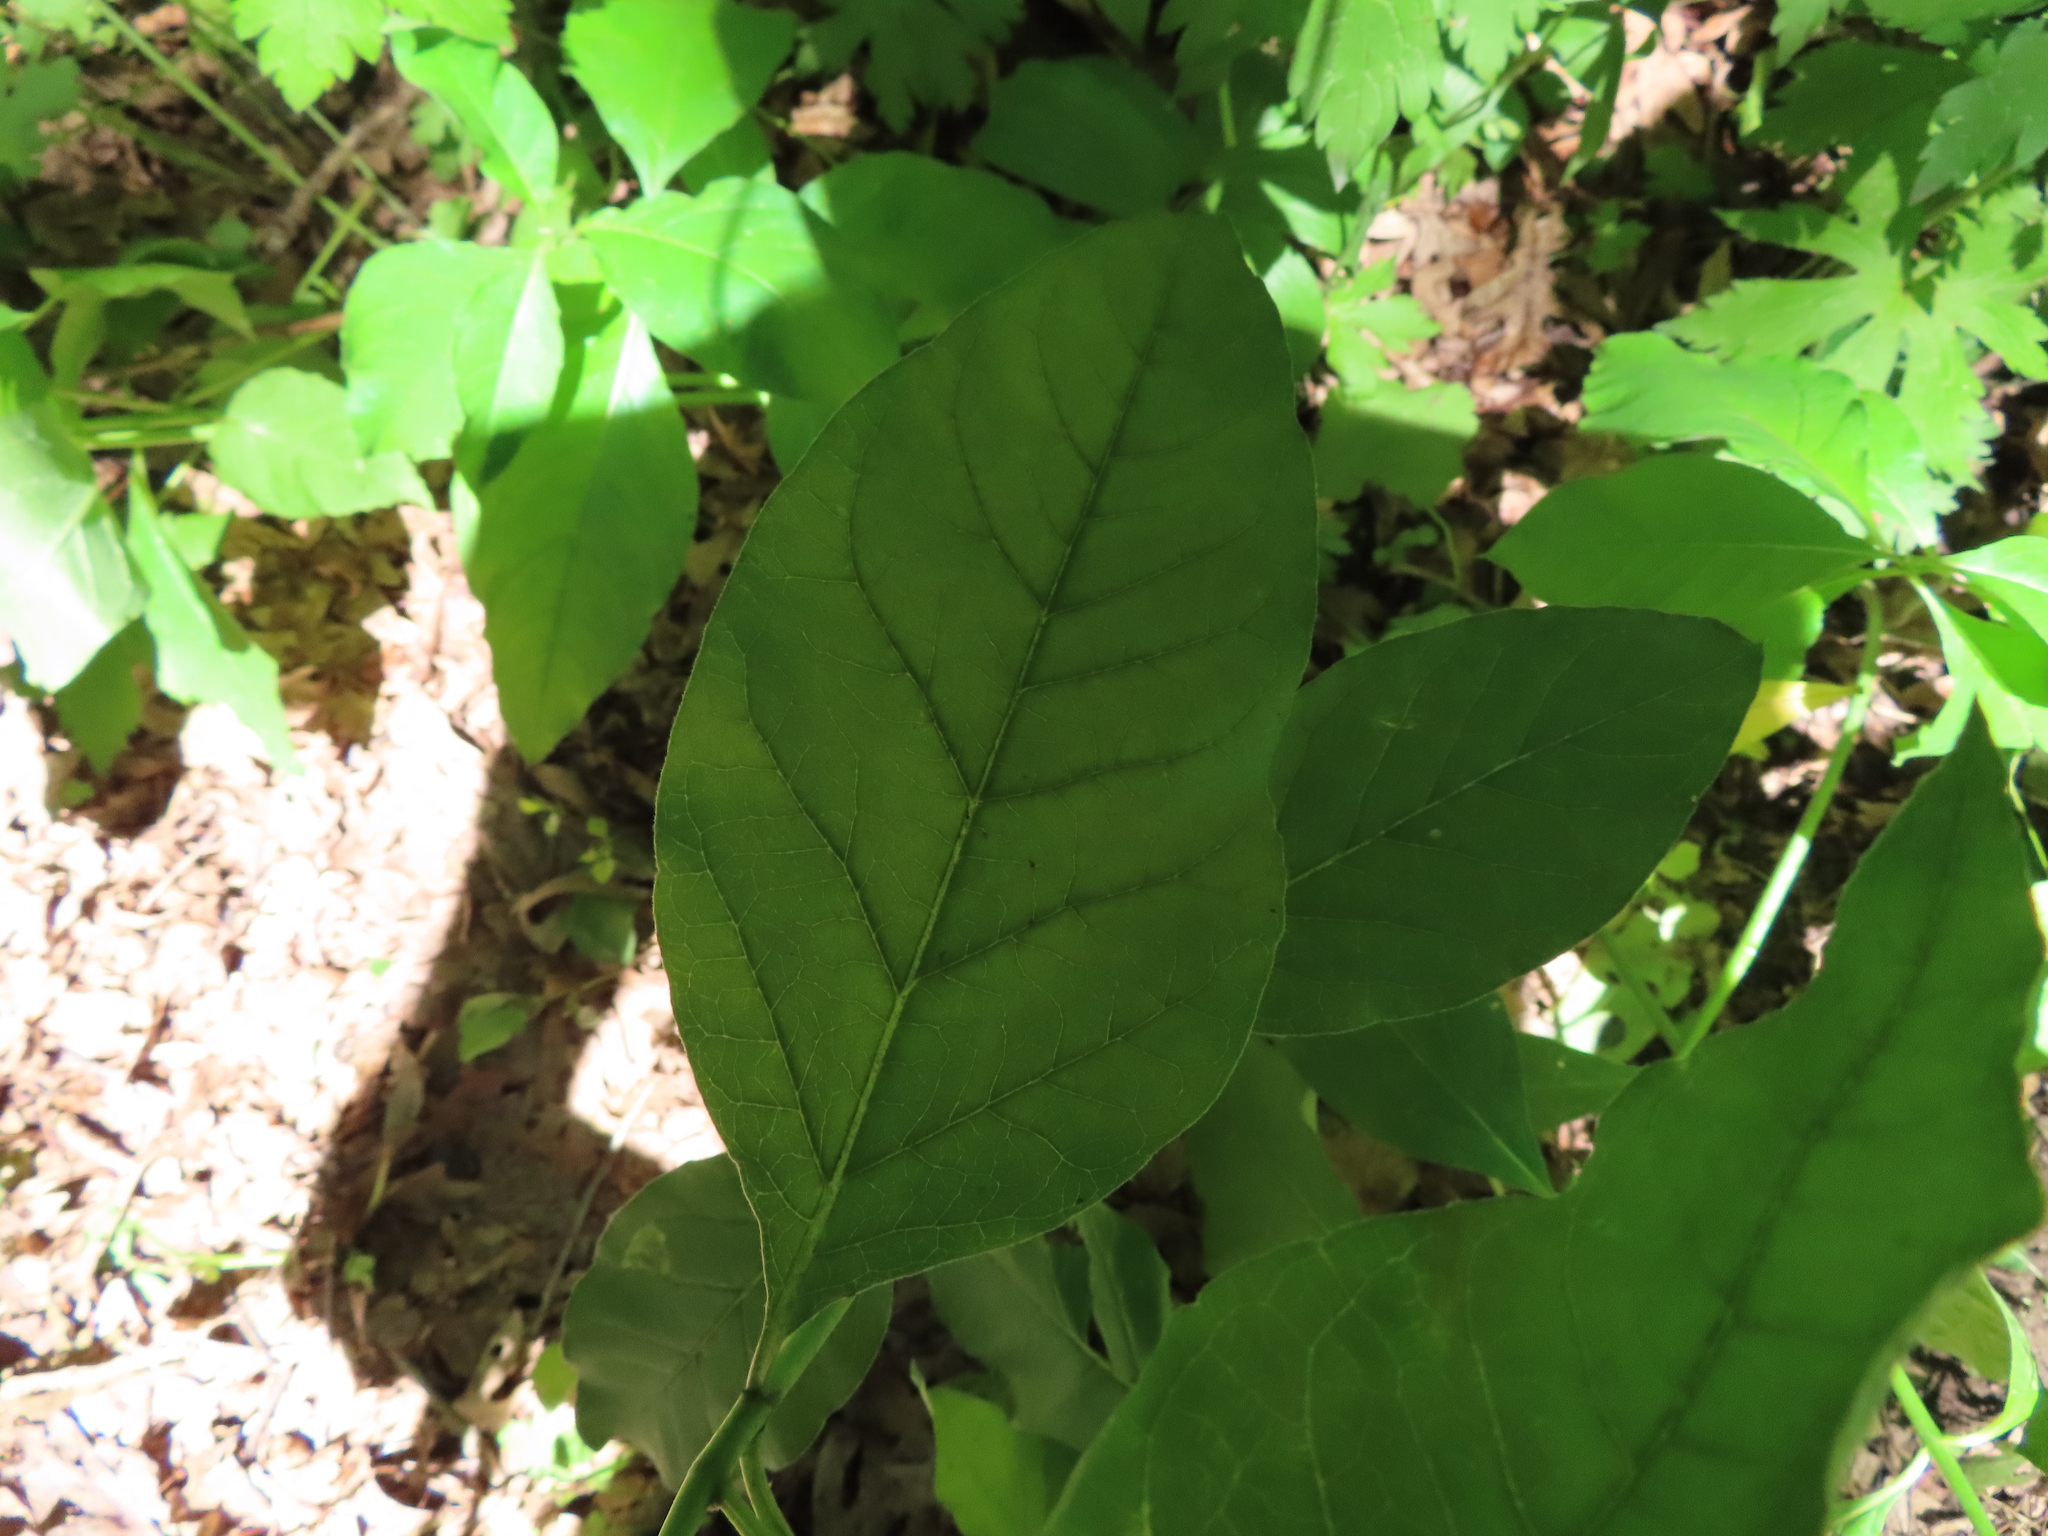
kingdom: Plantae
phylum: Tracheophyta
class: Magnoliopsida
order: Gentianales
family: Apocynaceae
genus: Asclepias
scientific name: Asclepias exaltata
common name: Poke milkweed
